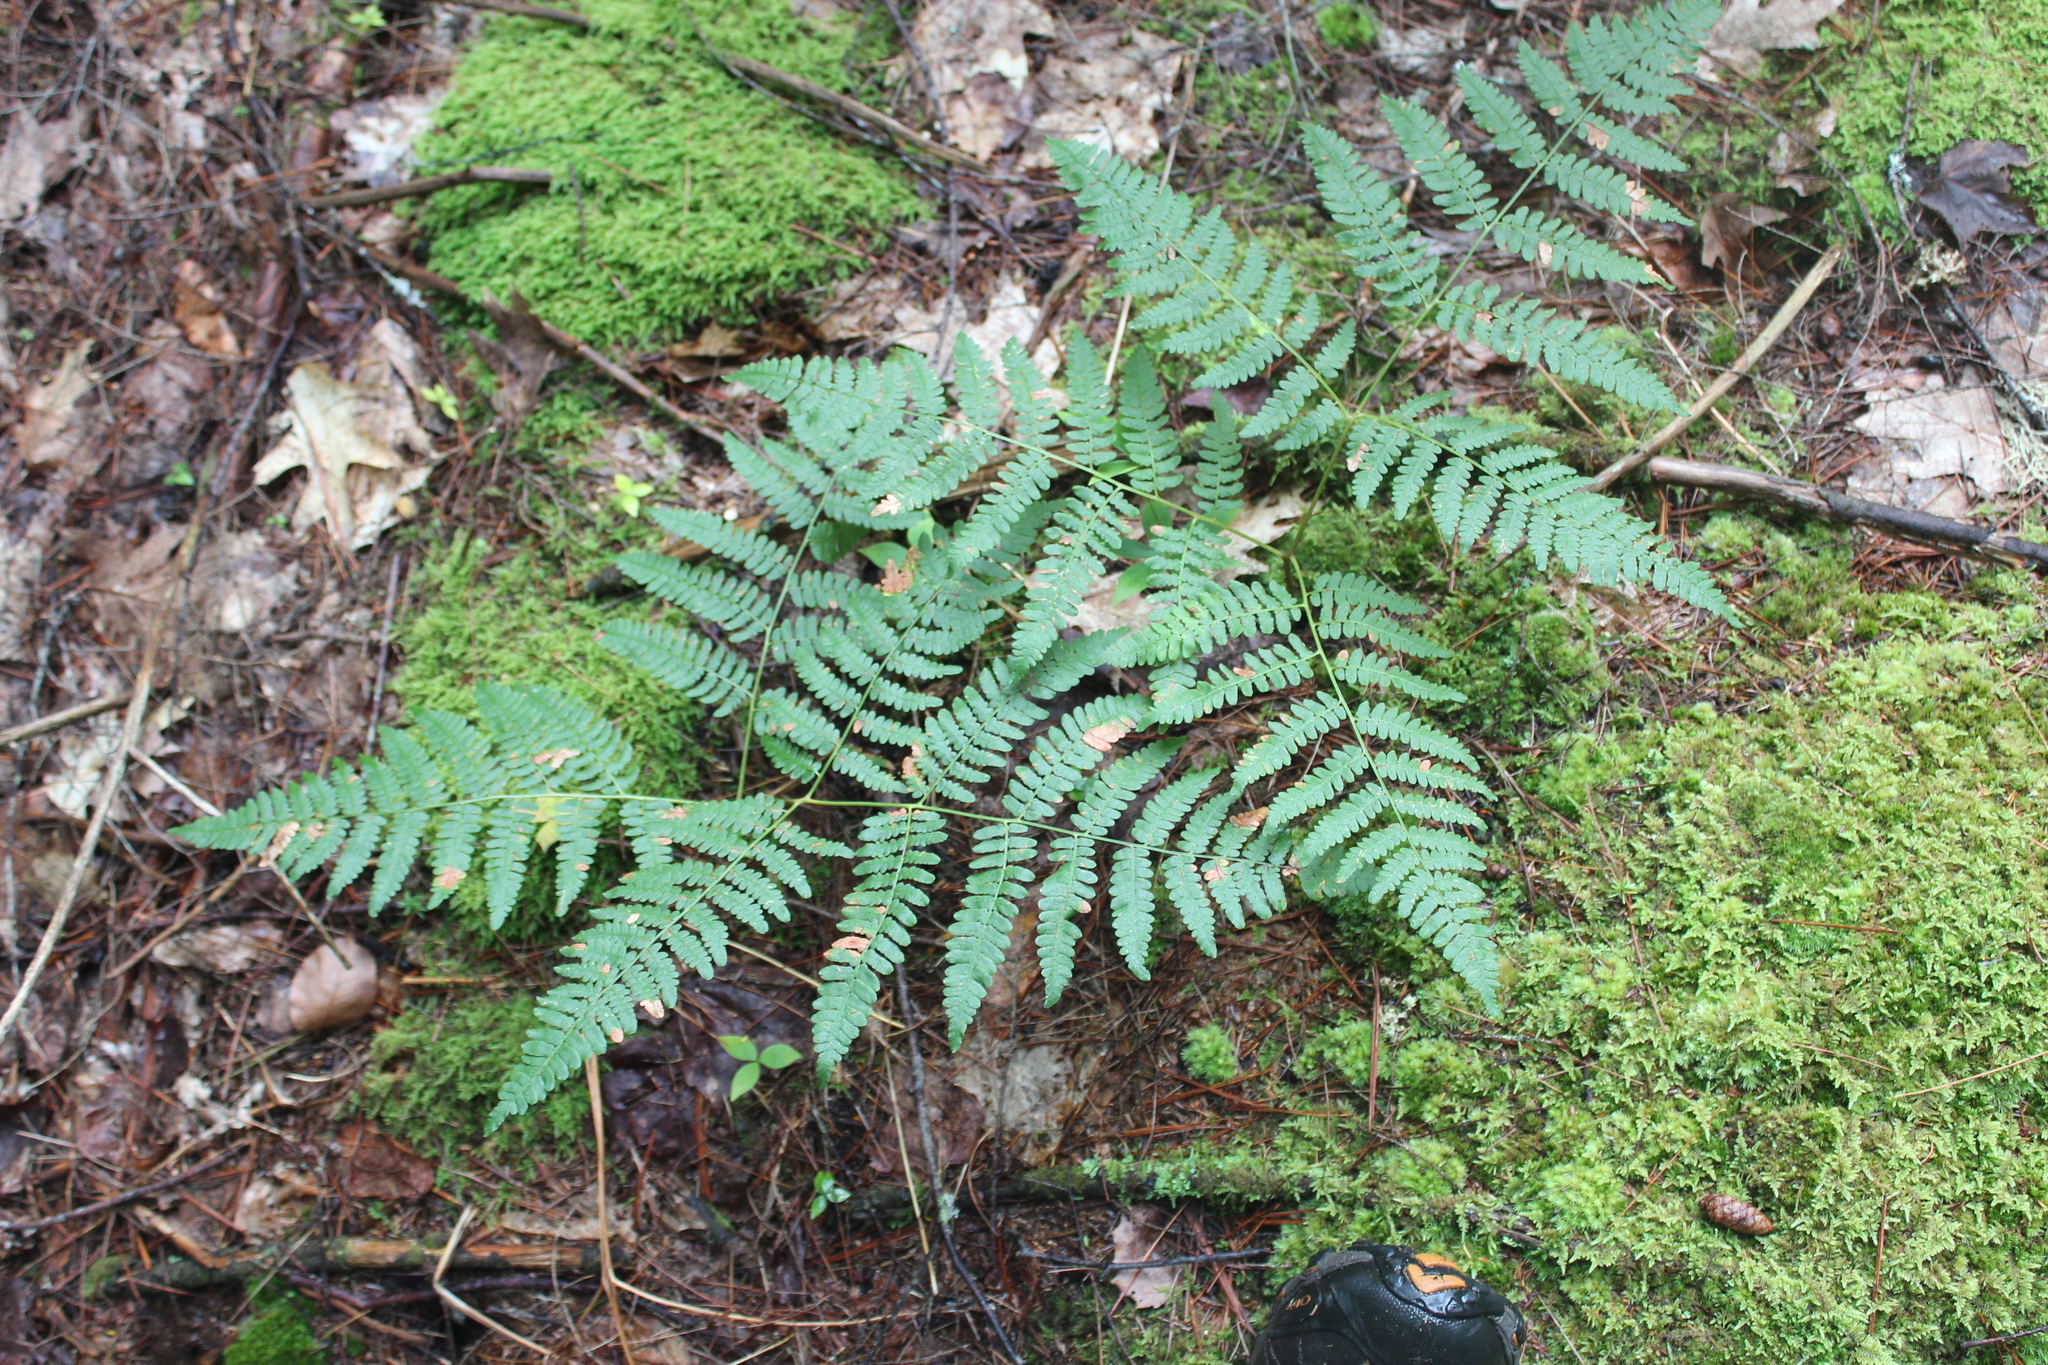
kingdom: Plantae
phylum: Tracheophyta
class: Polypodiopsida
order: Polypodiales
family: Dennstaedtiaceae
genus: Pteridium
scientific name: Pteridium aquilinum
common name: Bracken
